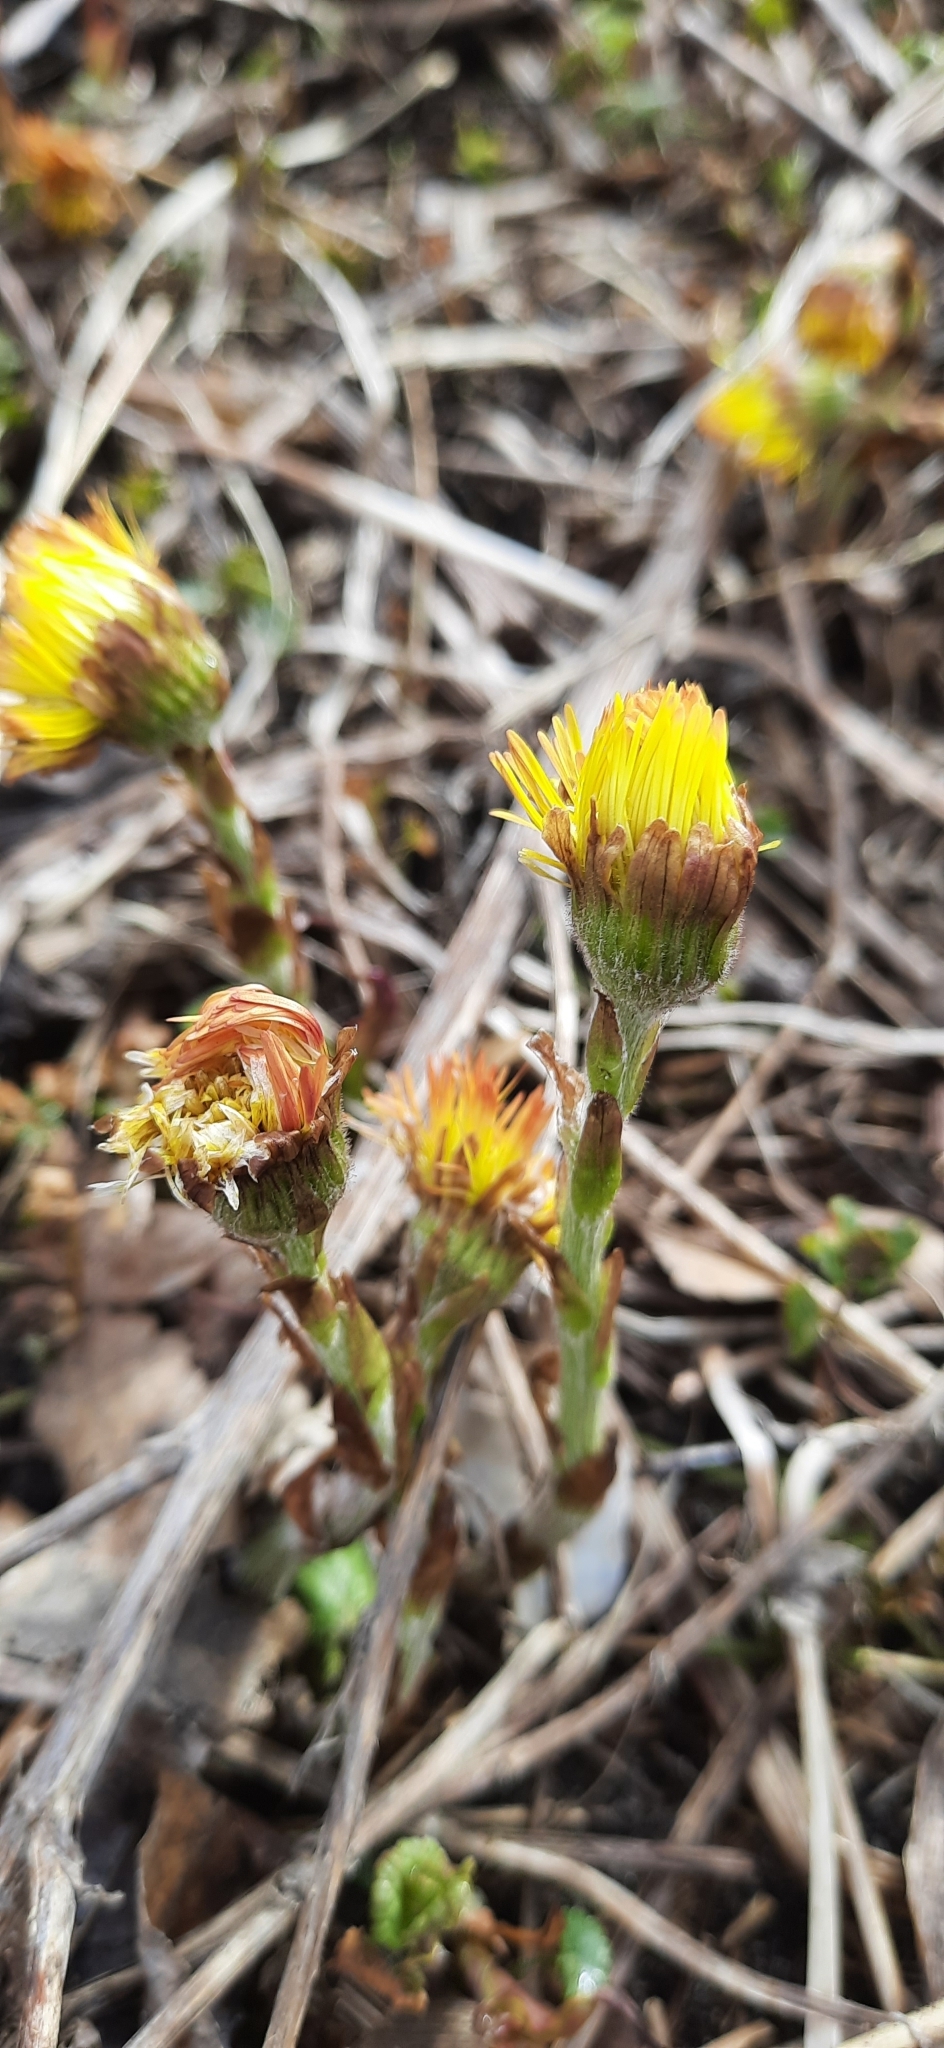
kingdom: Plantae
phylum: Tracheophyta
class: Magnoliopsida
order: Asterales
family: Asteraceae
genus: Tussilago
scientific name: Tussilago farfara
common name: Coltsfoot
